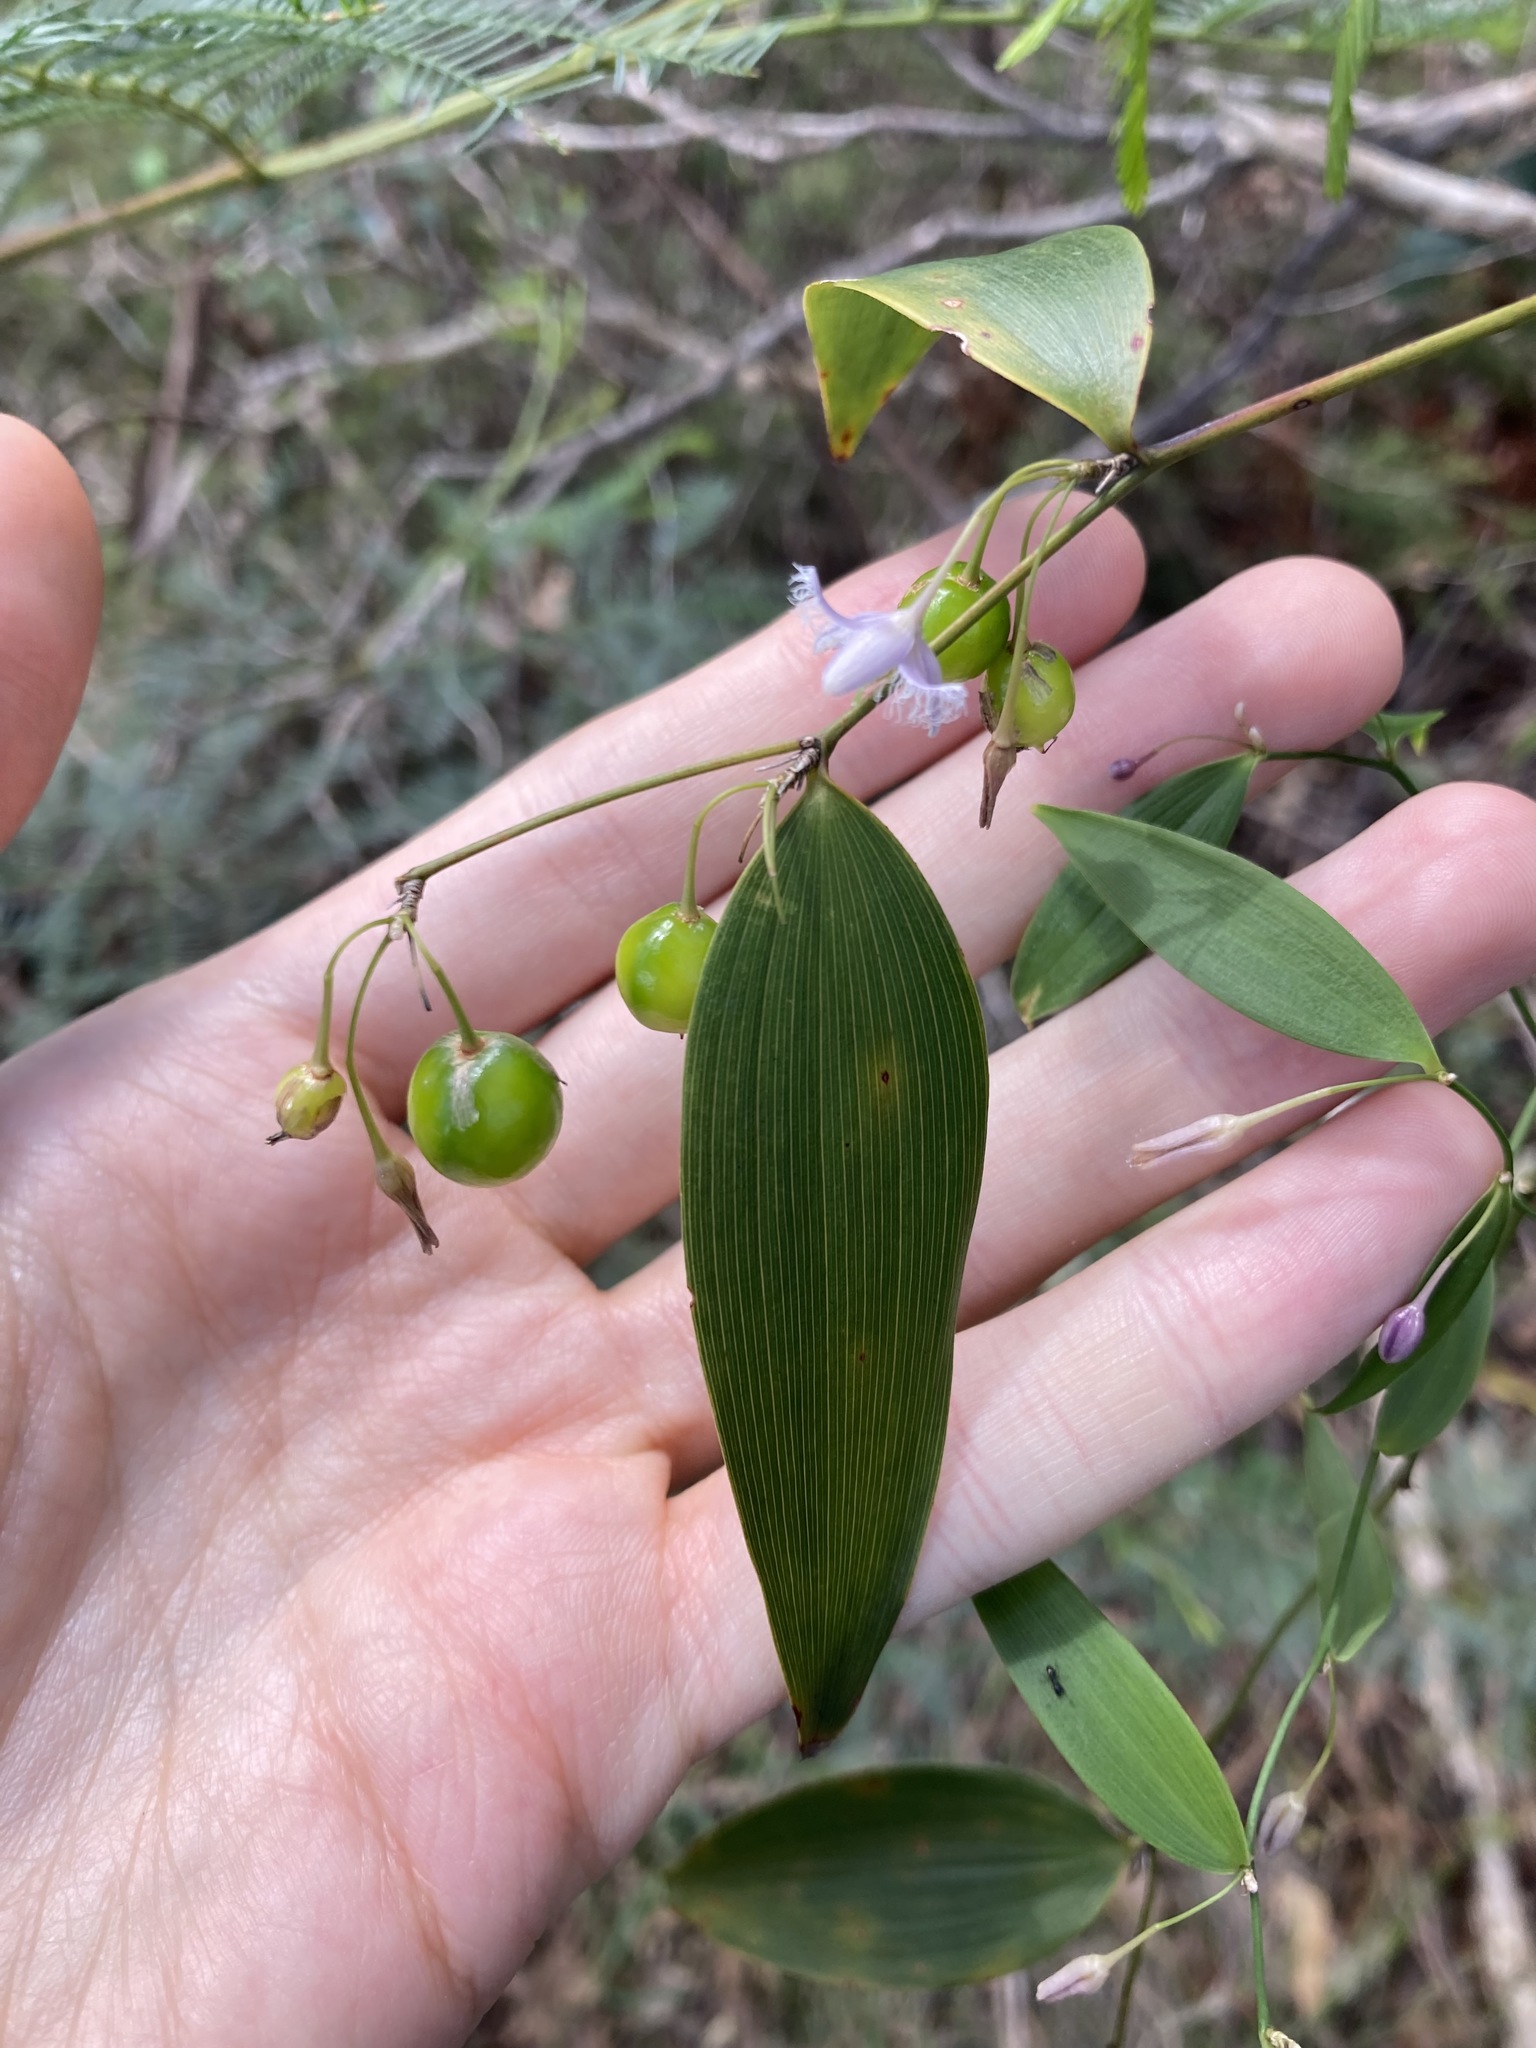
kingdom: Plantae
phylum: Tracheophyta
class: Liliopsida
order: Asparagales
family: Asparagaceae
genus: Eustrephus
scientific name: Eustrephus latifolius
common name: Orangevine
